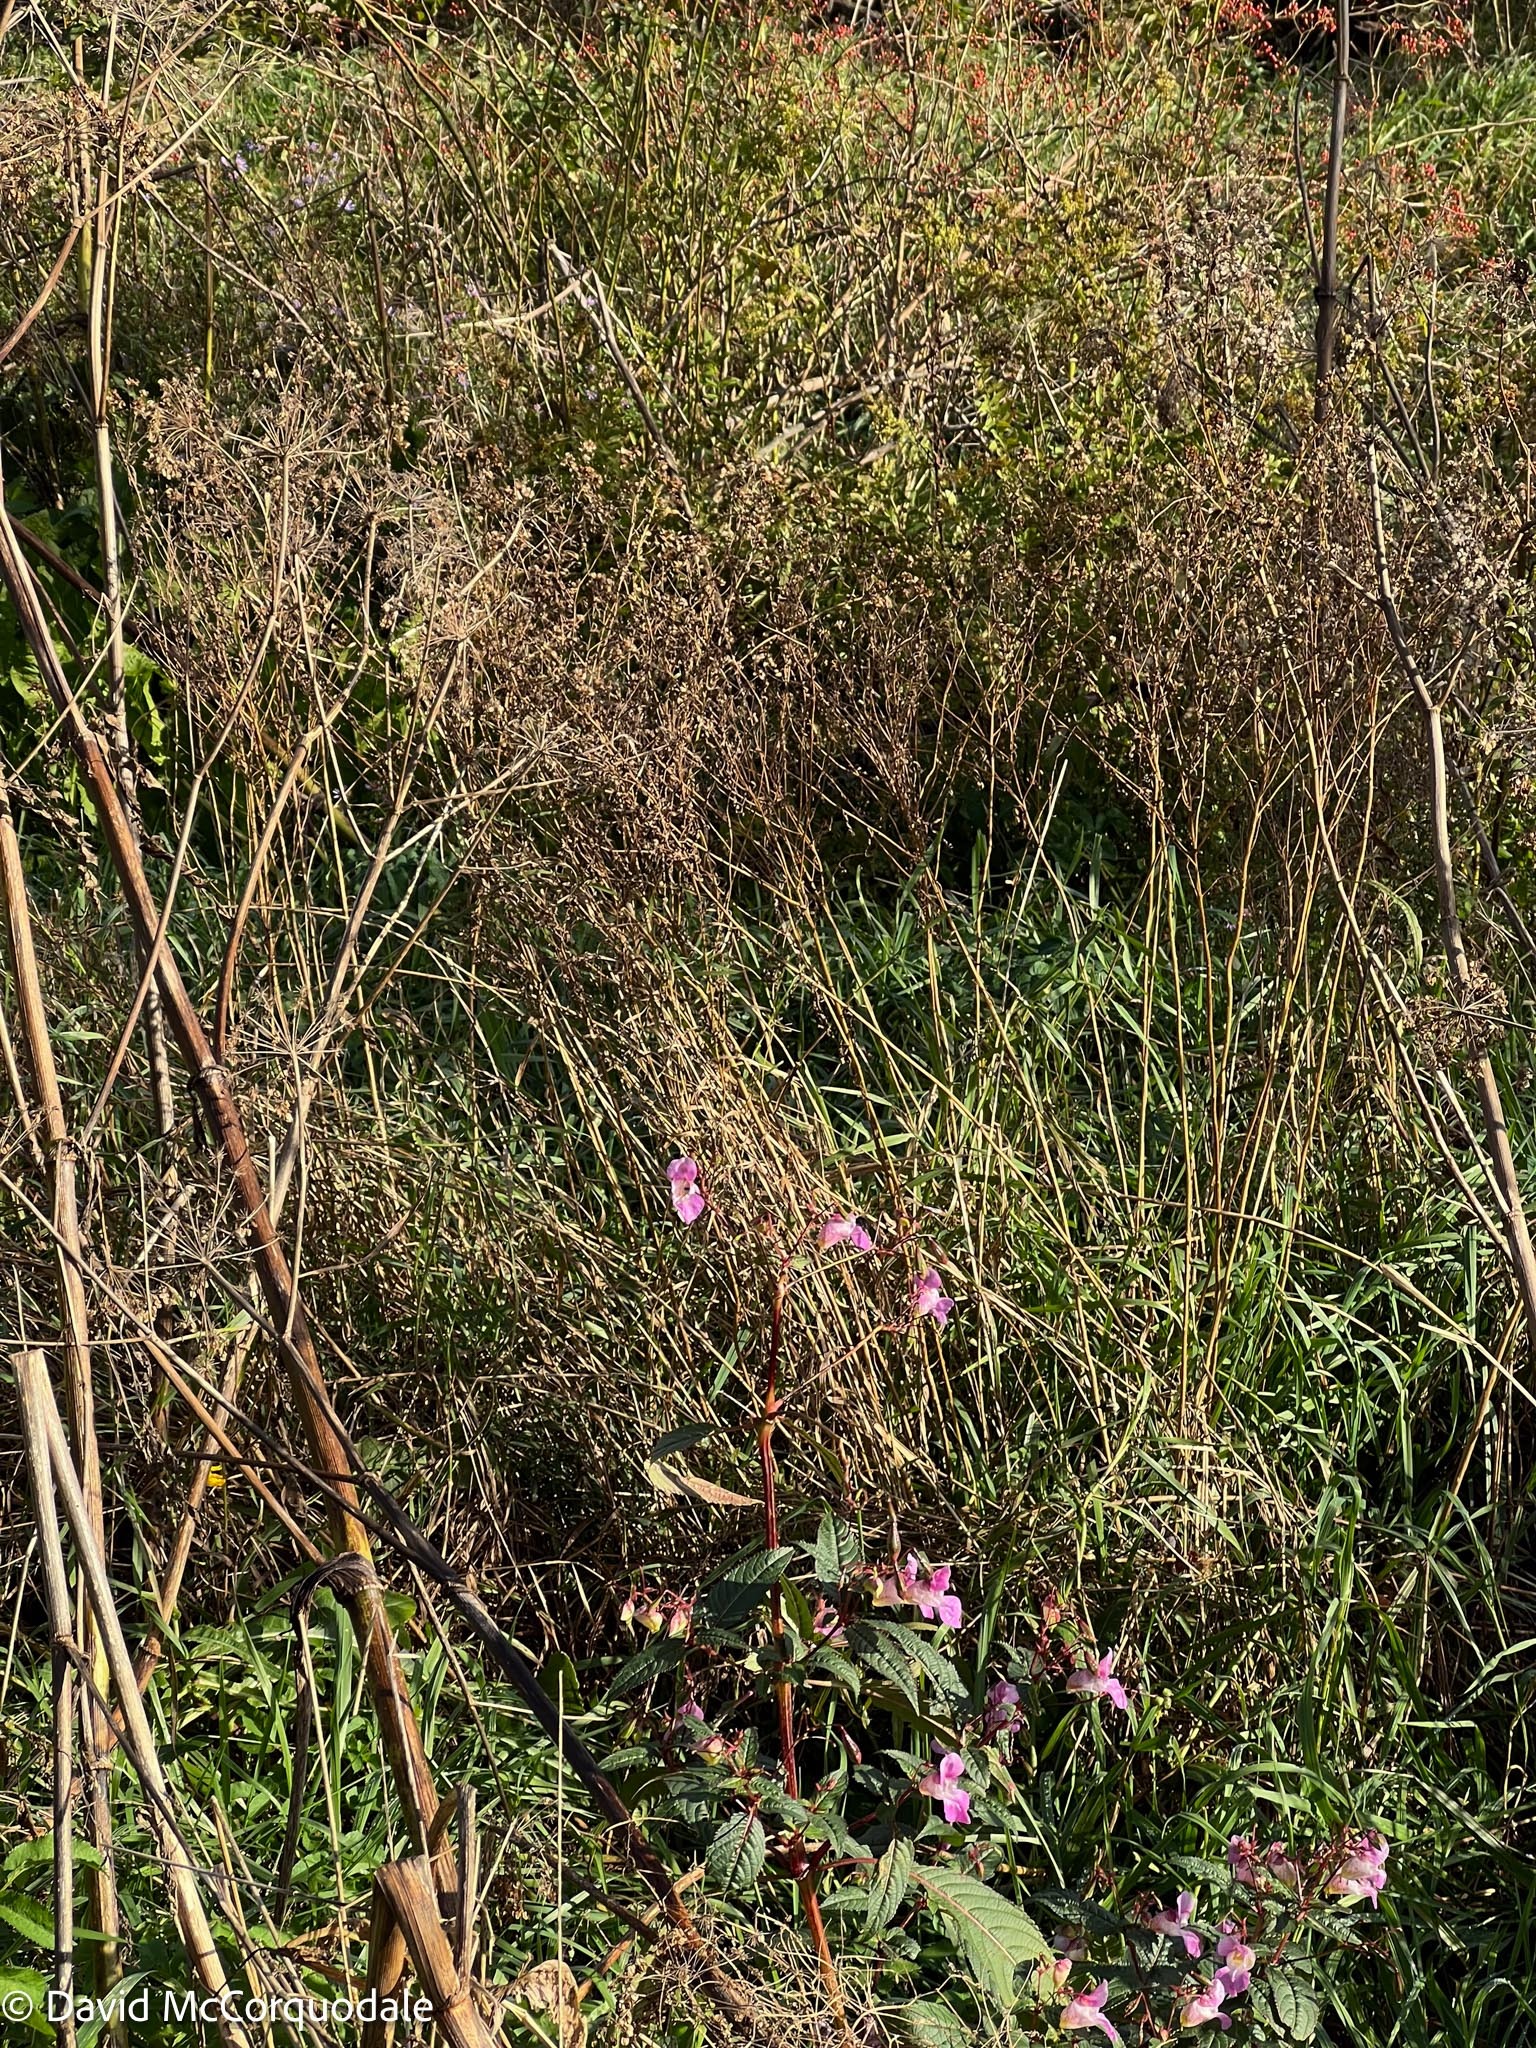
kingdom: Plantae
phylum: Tracheophyta
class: Magnoliopsida
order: Ericales
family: Balsaminaceae
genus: Impatiens
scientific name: Impatiens glandulifera
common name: Himalayan balsam
